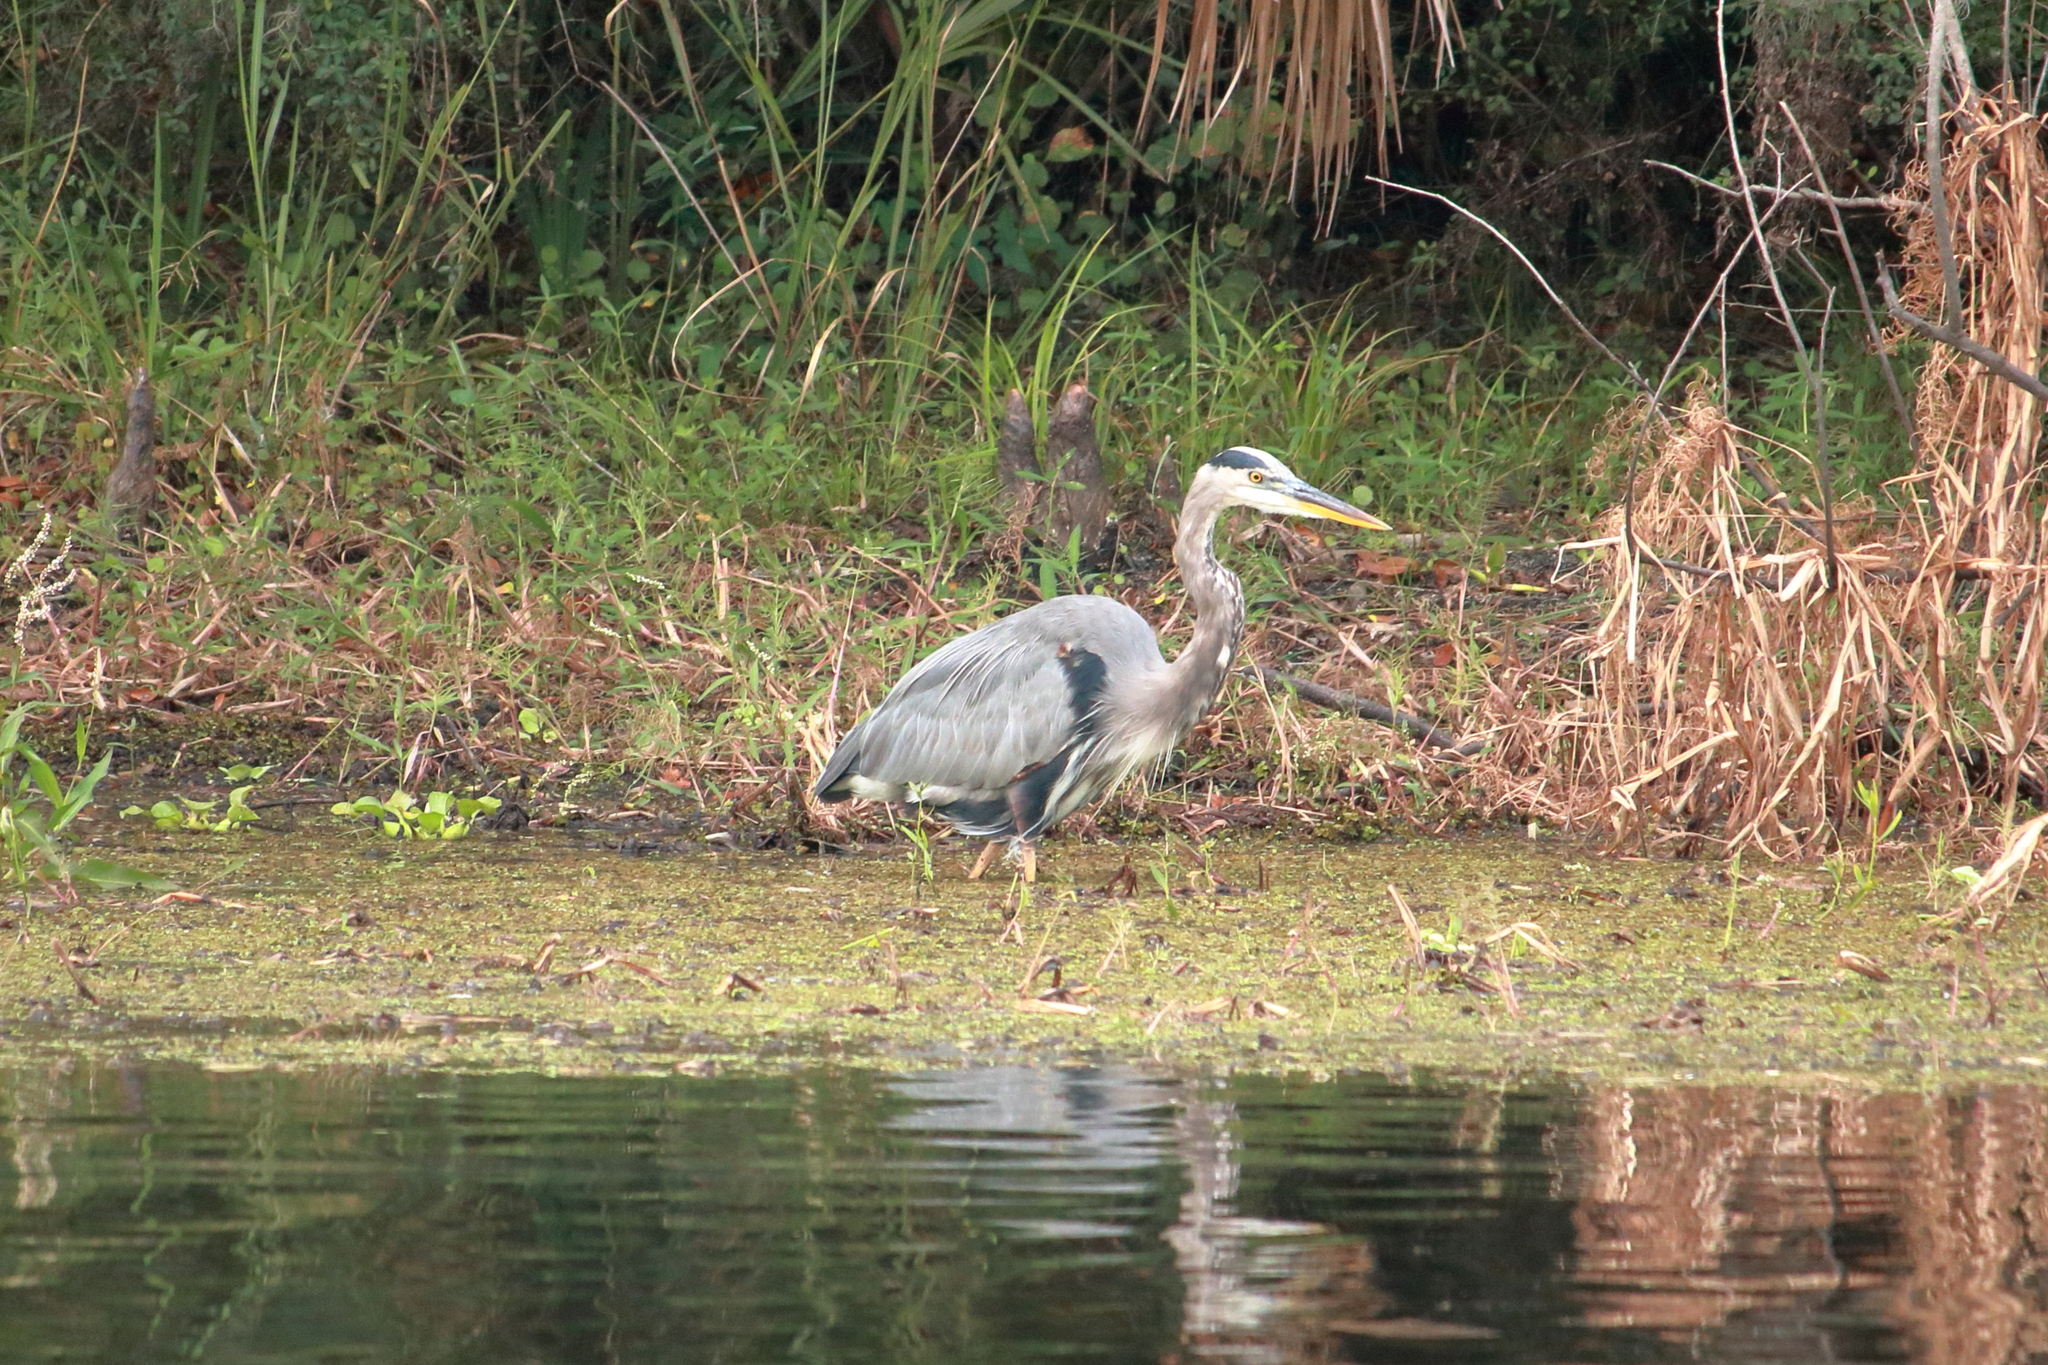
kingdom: Animalia
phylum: Chordata
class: Aves
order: Pelecaniformes
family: Ardeidae
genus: Ardea
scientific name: Ardea herodias
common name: Great blue heron
